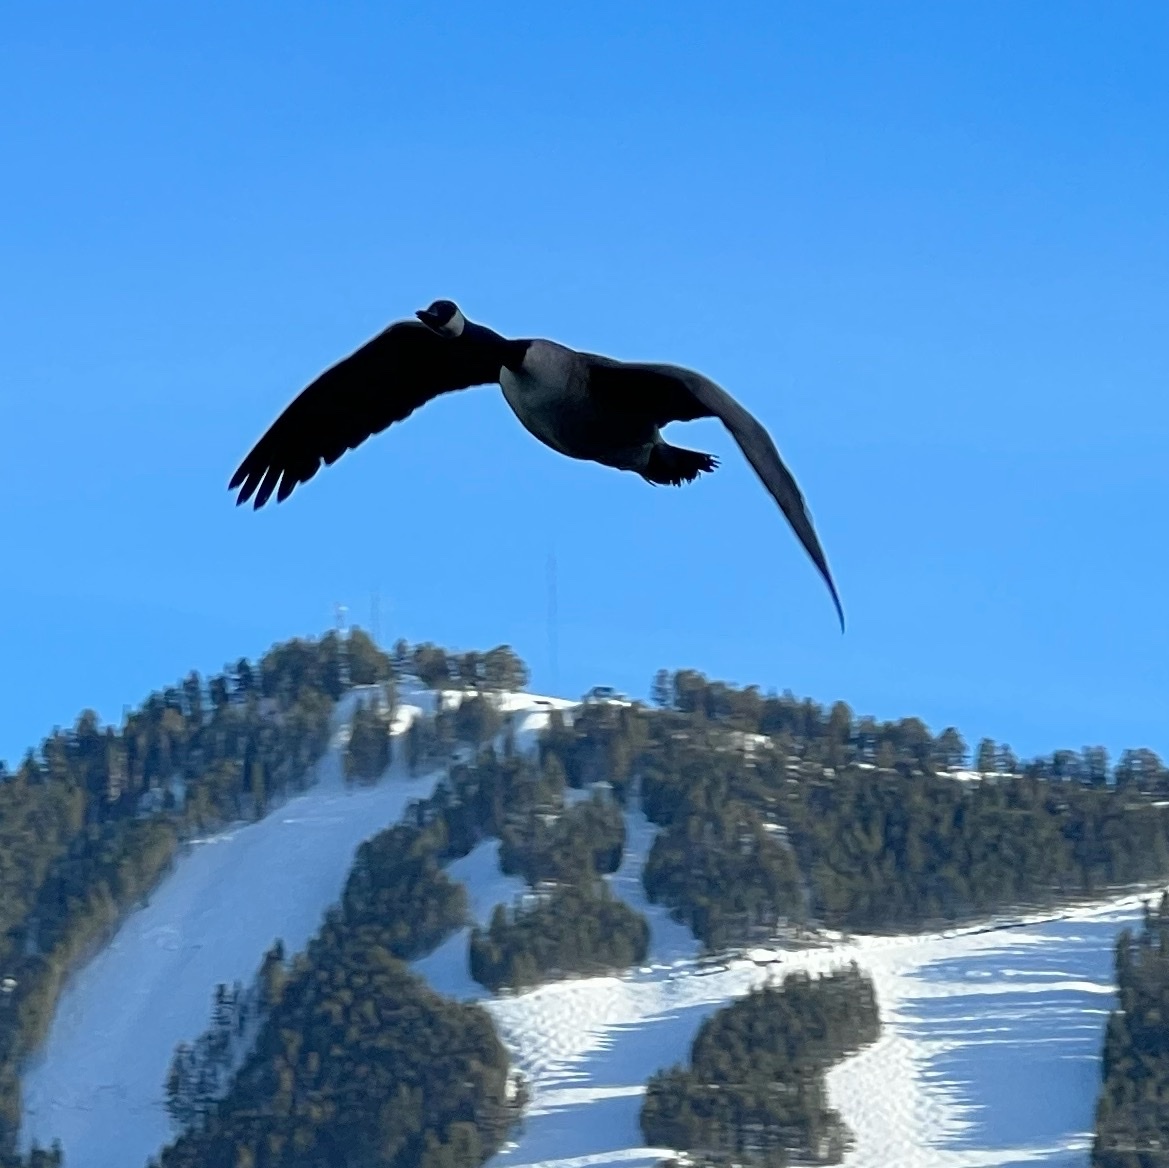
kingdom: Animalia
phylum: Chordata
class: Aves
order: Anseriformes
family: Anatidae
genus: Branta
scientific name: Branta canadensis
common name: Canada goose
